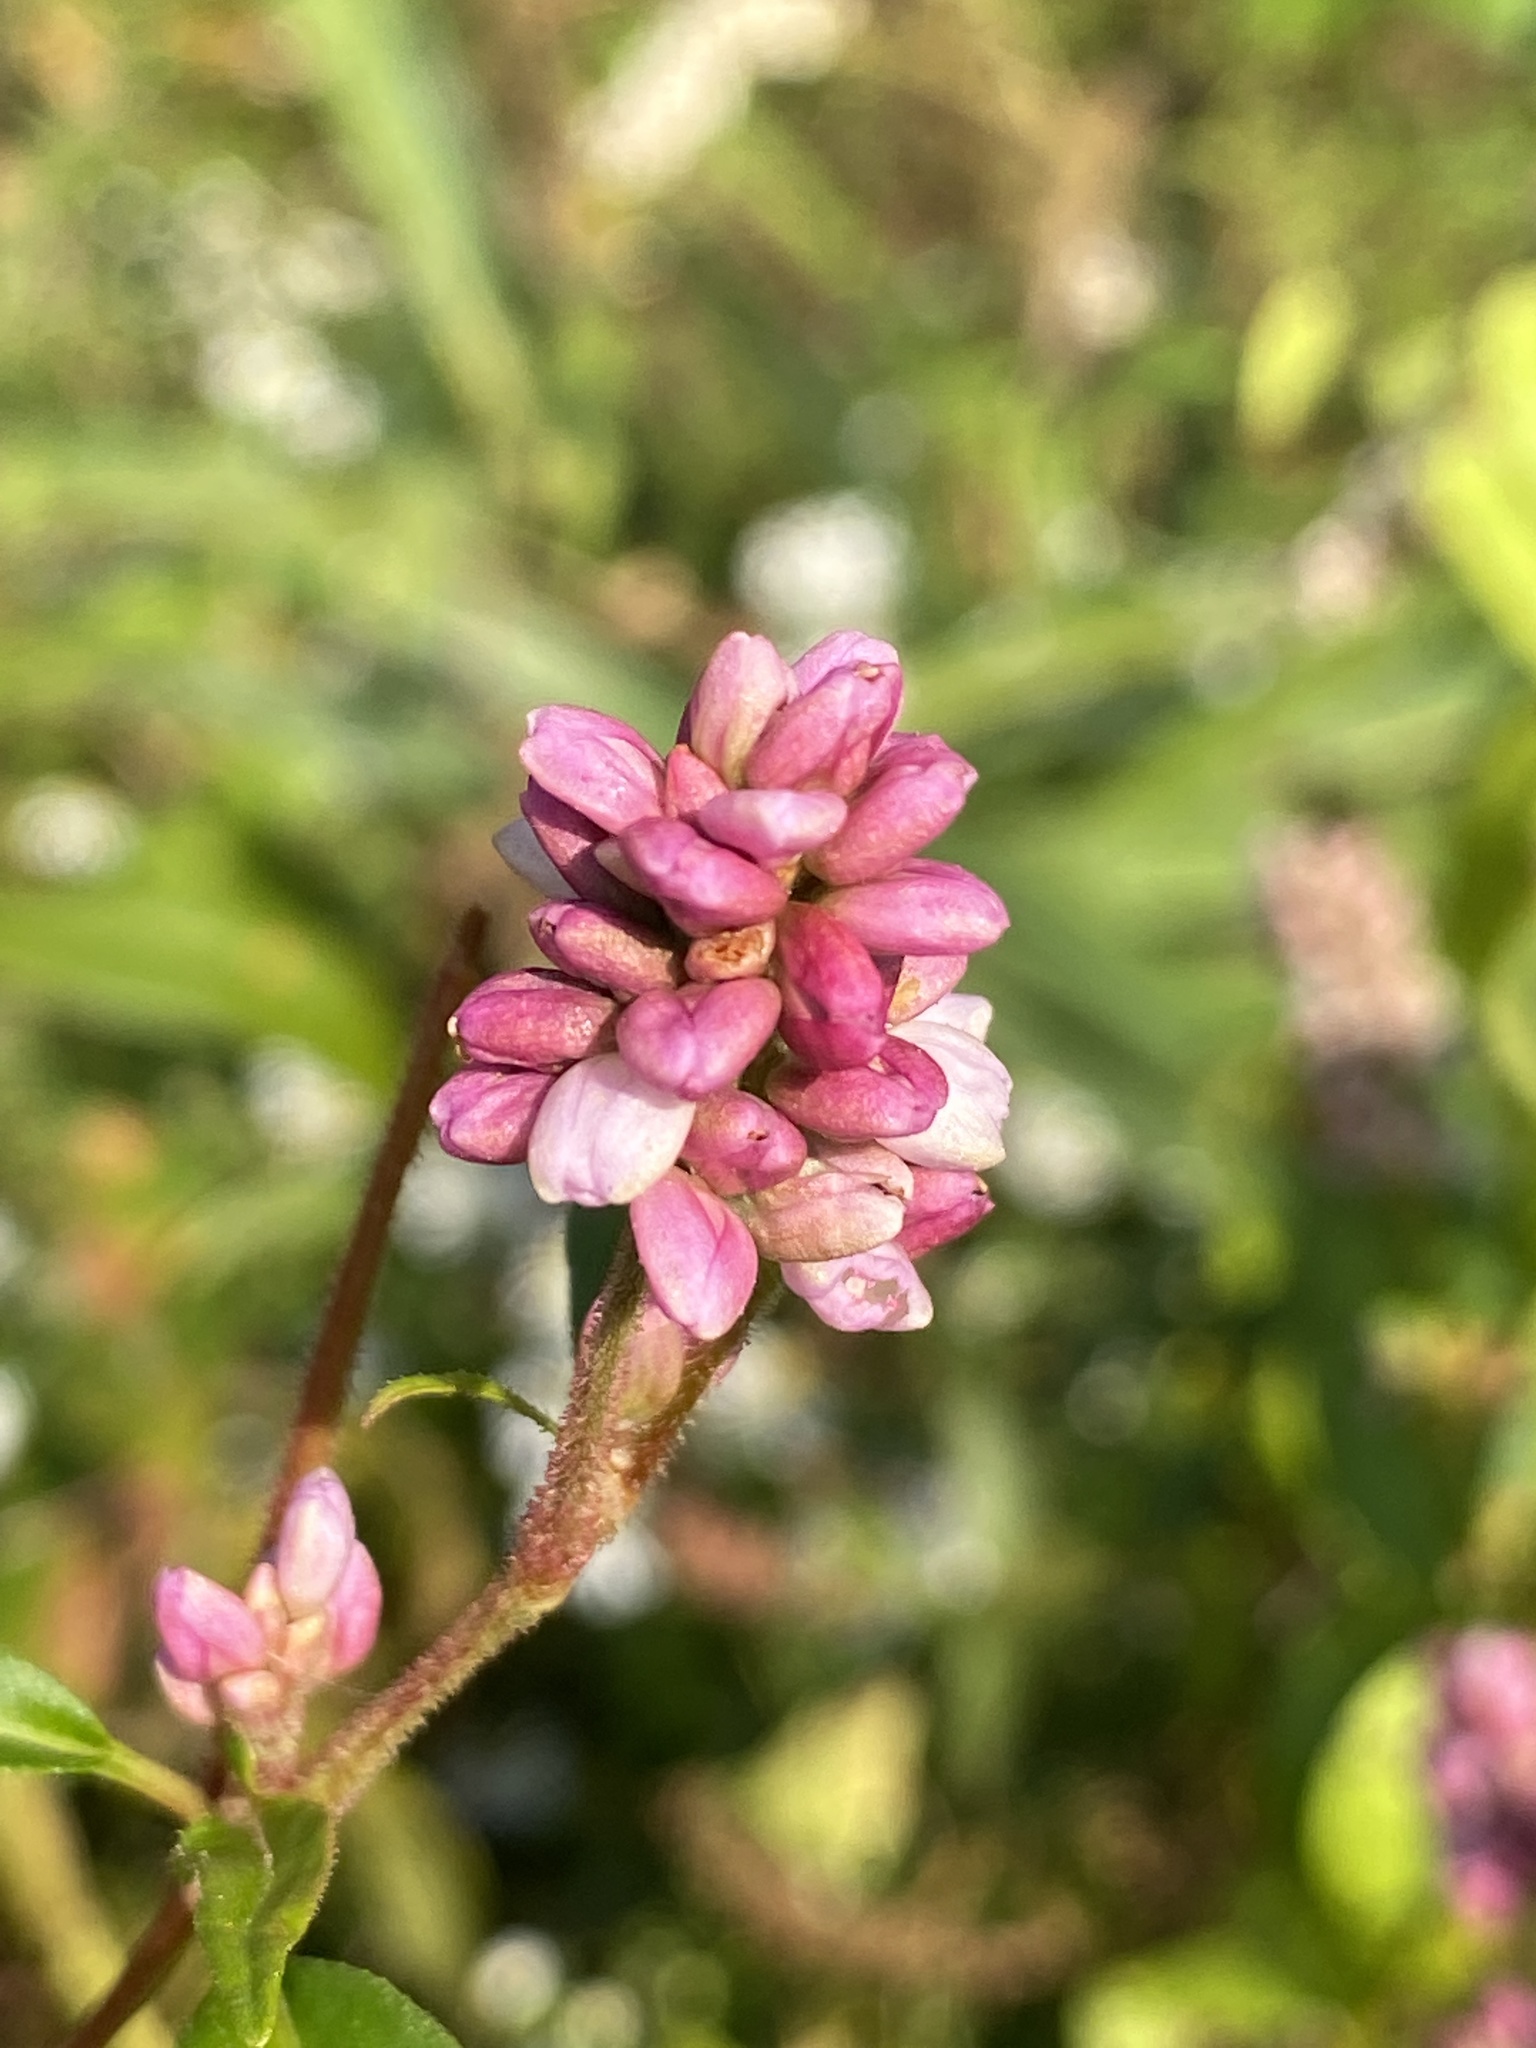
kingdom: Plantae
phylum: Tracheophyta
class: Magnoliopsida
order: Caryophyllales
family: Polygonaceae
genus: Persicaria
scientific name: Persicaria pensylvanica
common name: Pinkweed
